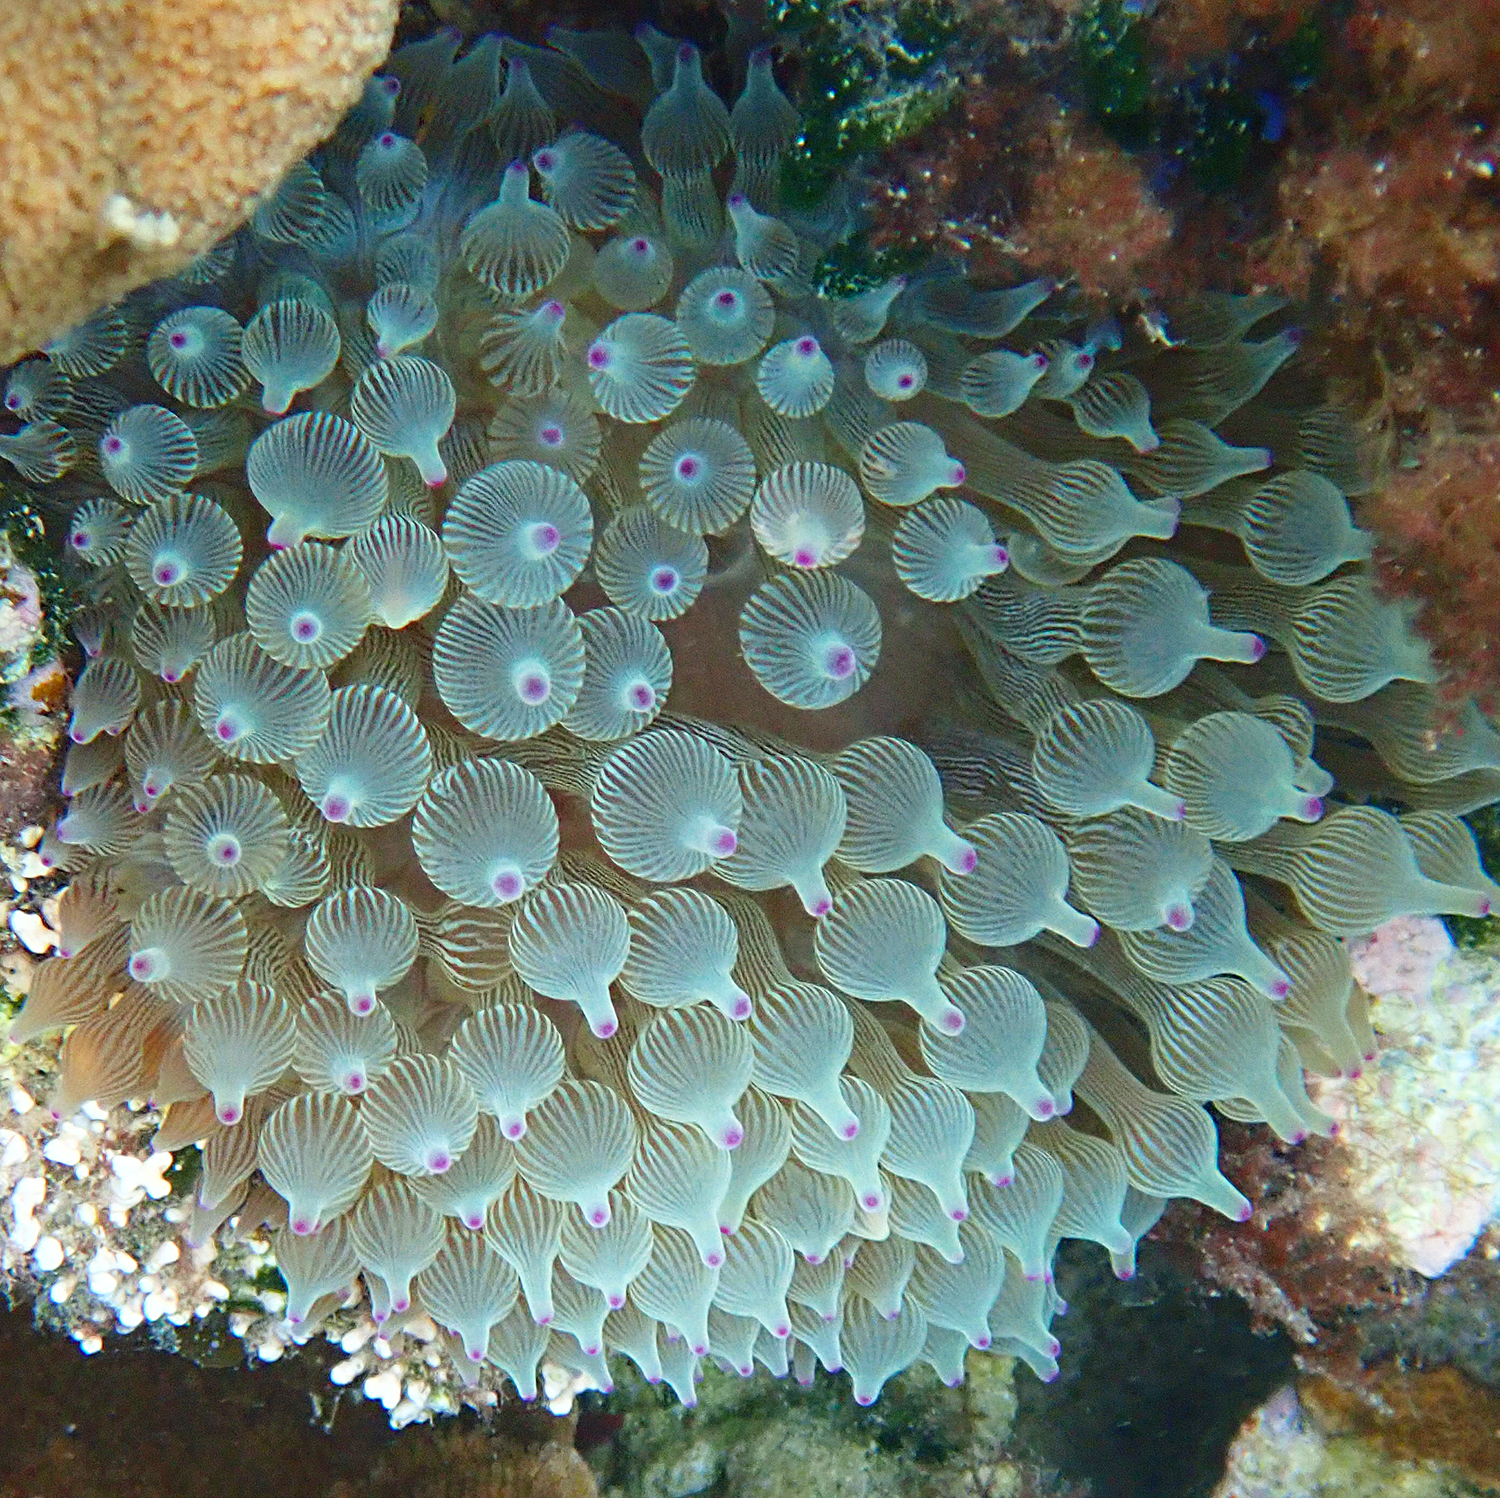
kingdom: Animalia
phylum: Cnidaria
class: Anthozoa
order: Actiniaria
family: Actiniidae
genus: Entacmaea
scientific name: Entacmaea quadricolor
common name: Bulb tentacle sea anemone
